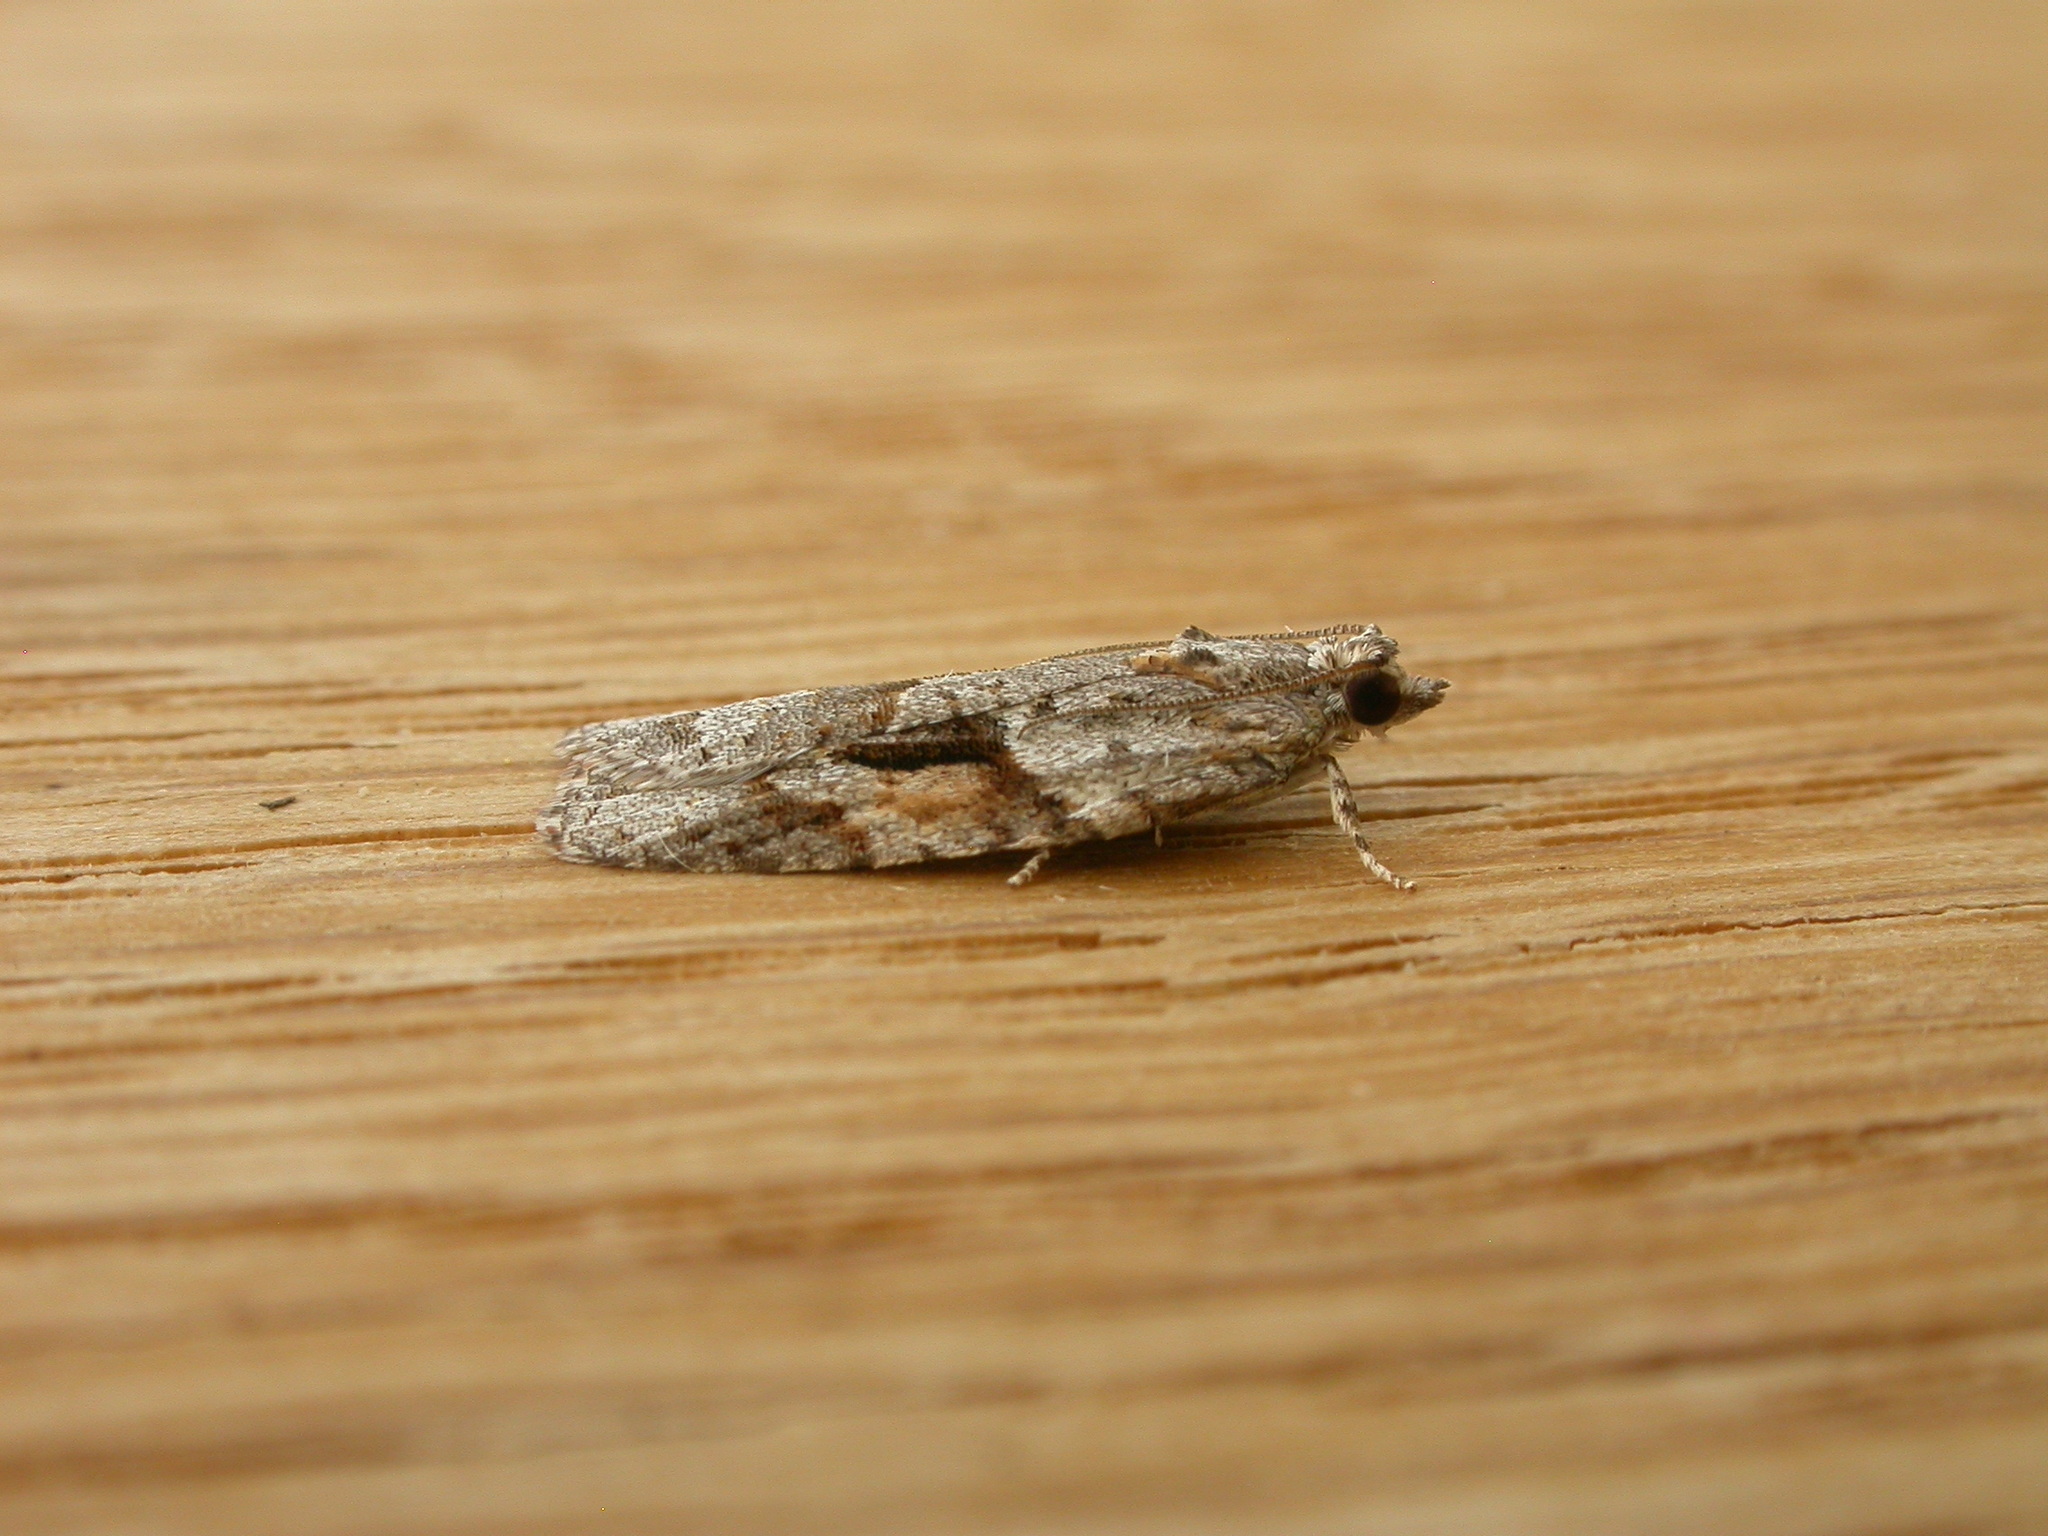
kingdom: Animalia
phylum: Arthropoda
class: Insecta
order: Lepidoptera
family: Tortricidae
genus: Acropolitis
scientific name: Acropolitis rudisana
